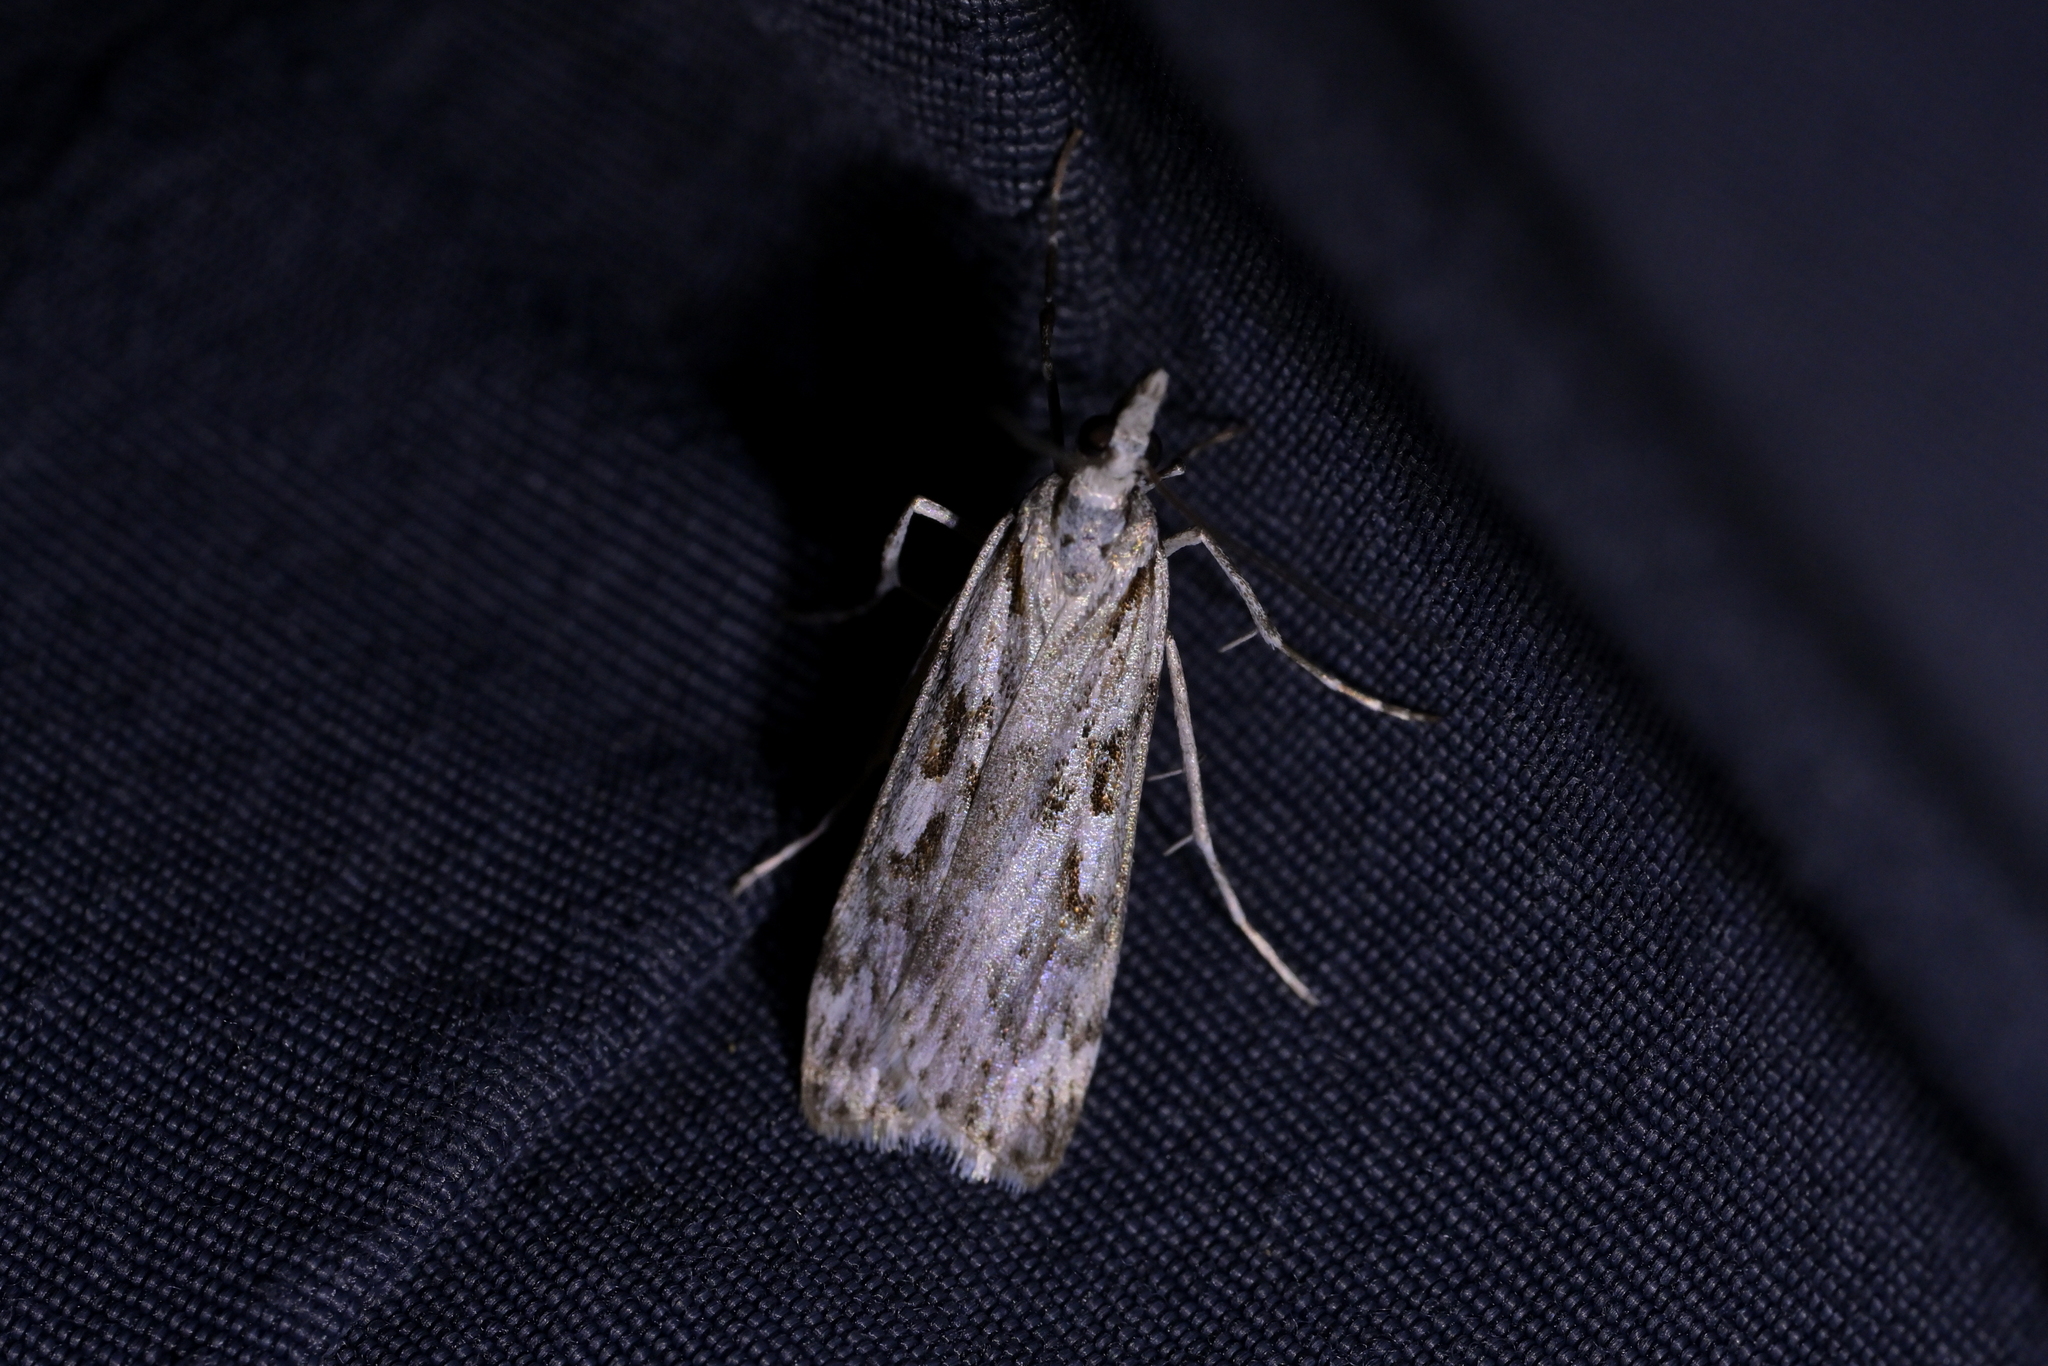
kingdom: Animalia
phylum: Arthropoda
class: Insecta
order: Lepidoptera
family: Crambidae
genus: Scoparia
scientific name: Scoparia petrina
